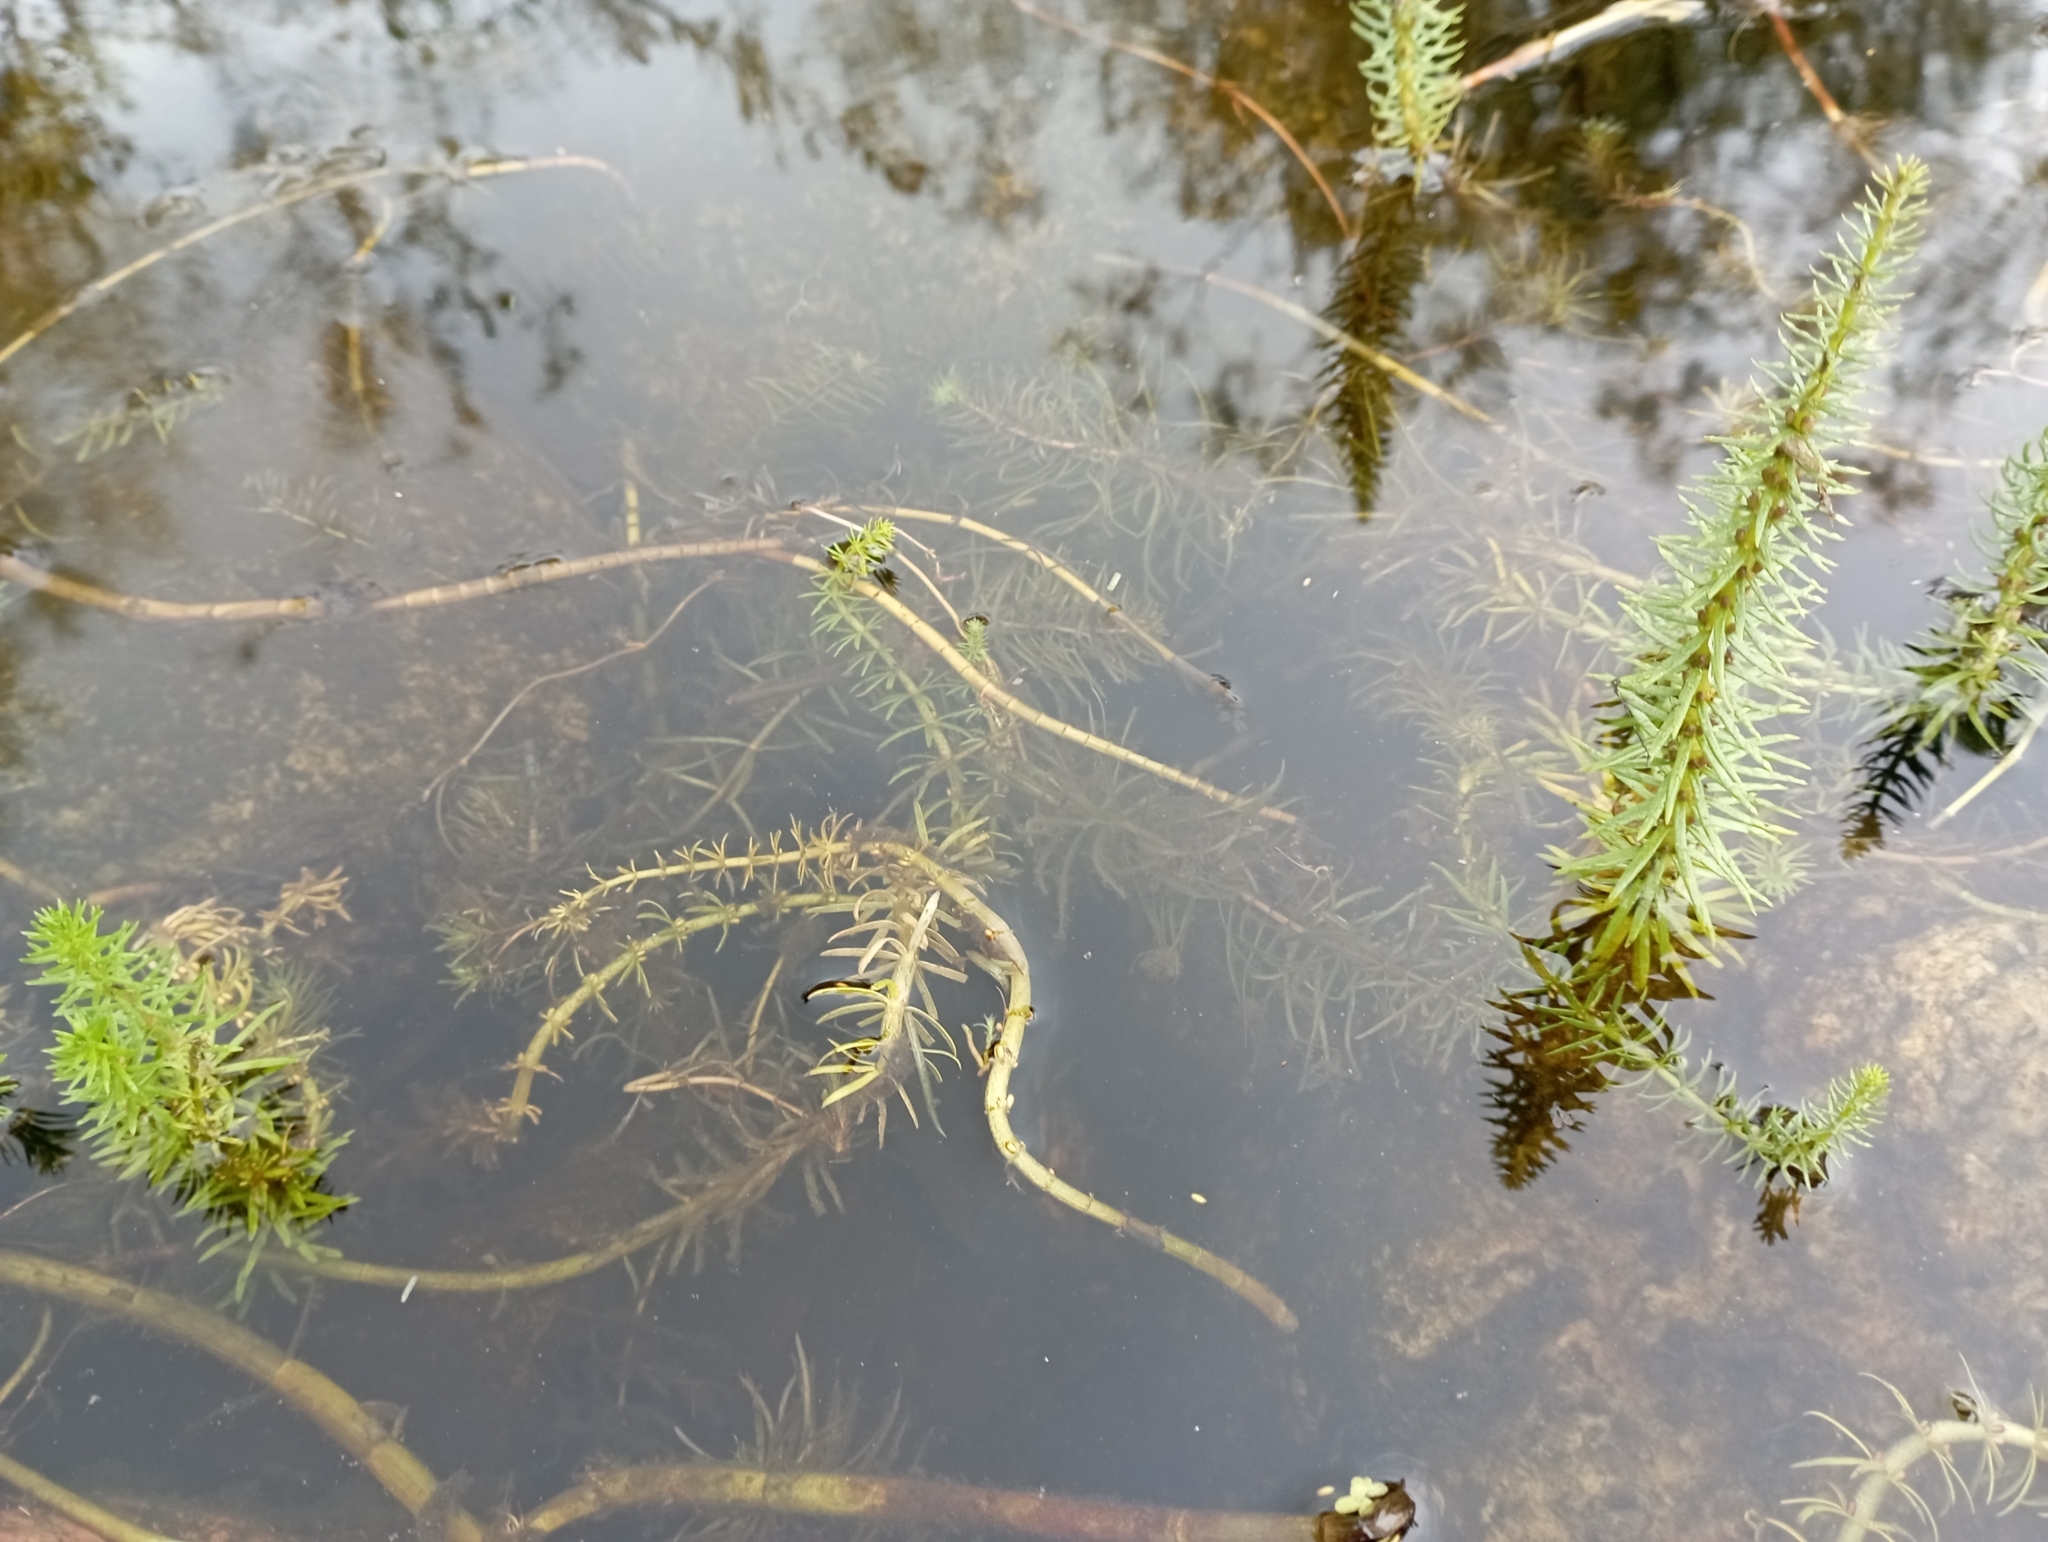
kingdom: Plantae
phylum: Tracheophyta
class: Magnoliopsida
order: Lamiales
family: Plantaginaceae
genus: Hippuris
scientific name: Hippuris vulgaris
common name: Mare's-tail
